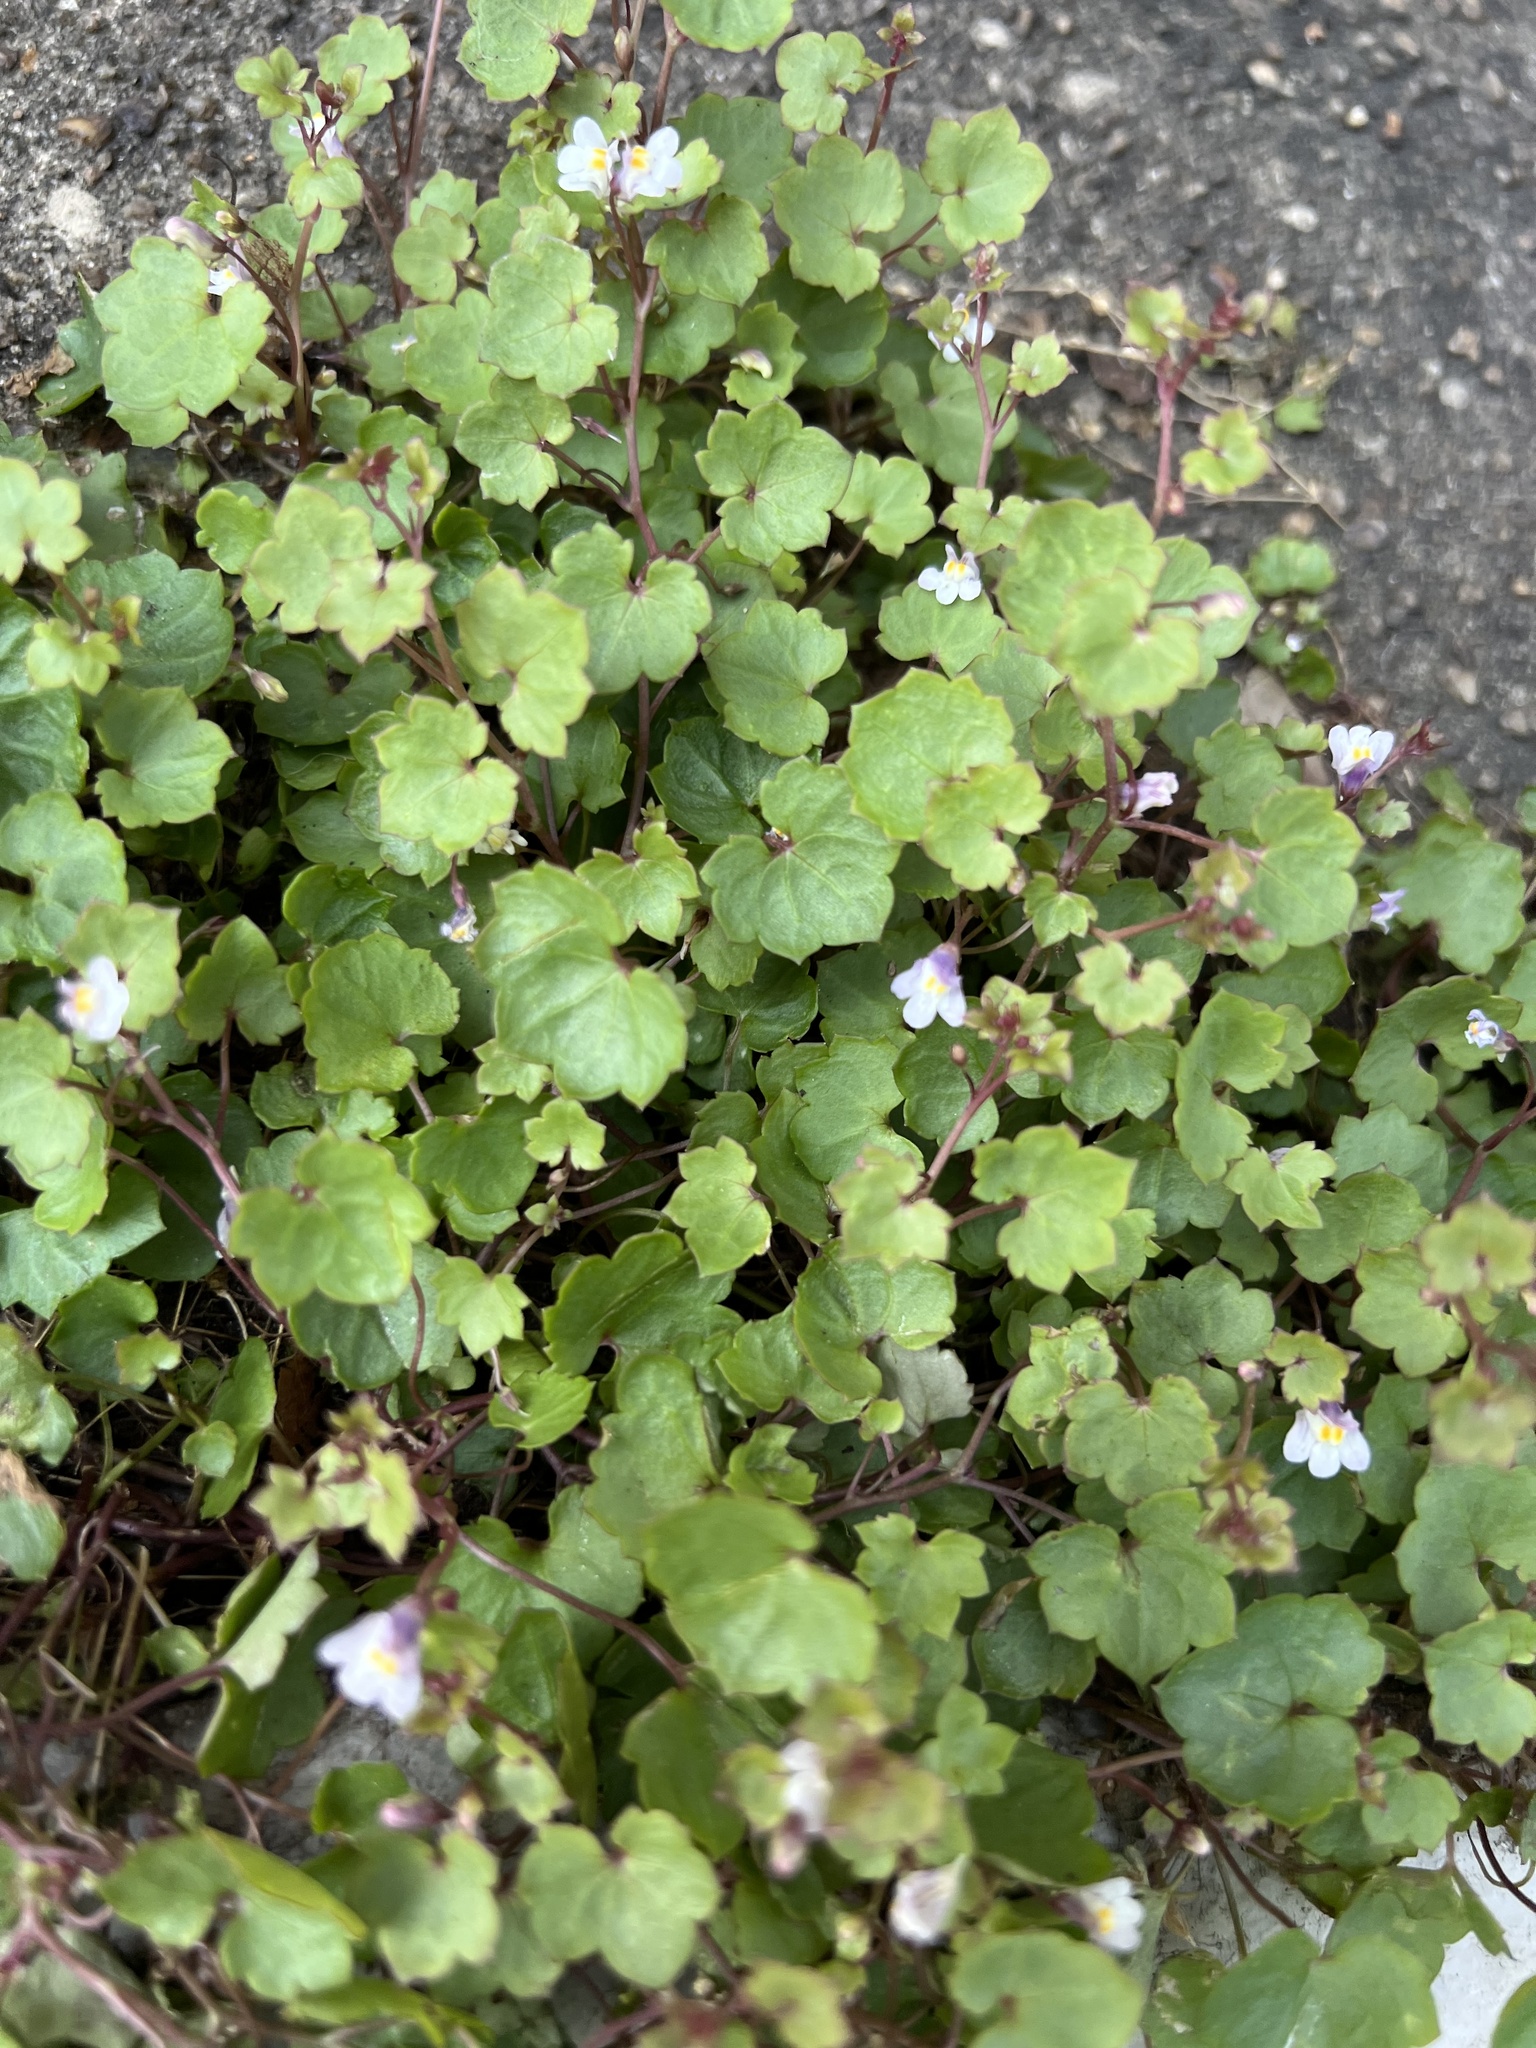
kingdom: Plantae
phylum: Tracheophyta
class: Magnoliopsida
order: Lamiales
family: Plantaginaceae
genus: Cymbalaria
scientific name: Cymbalaria muralis
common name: Ivy-leaved toadflax
